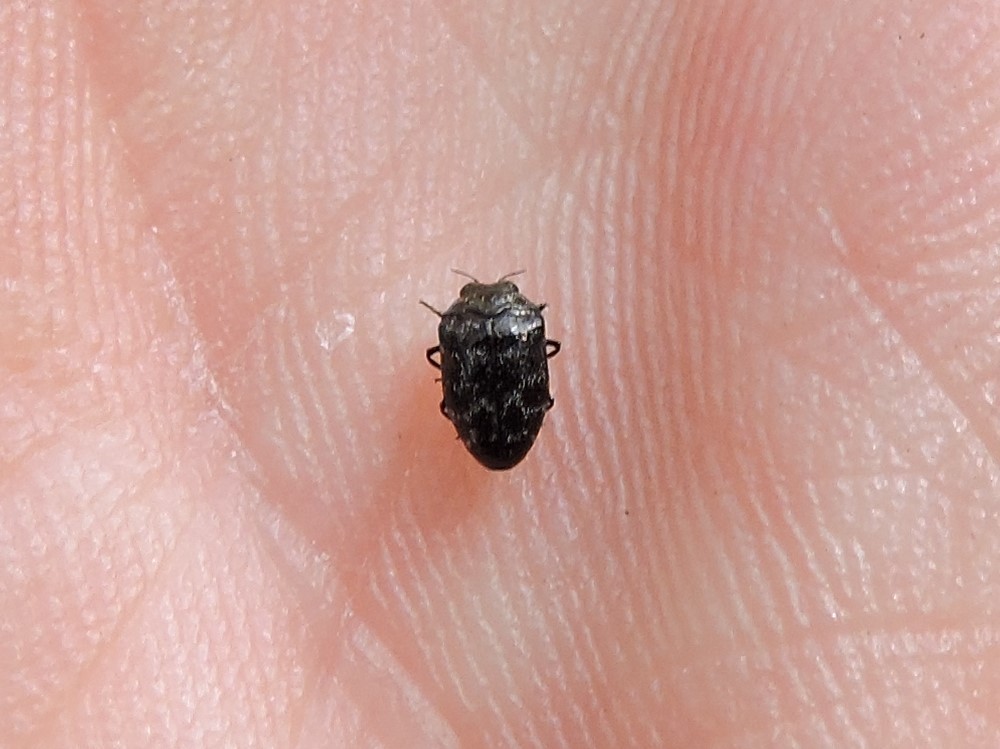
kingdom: Animalia
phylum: Arthropoda
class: Insecta
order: Coleoptera
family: Buprestidae
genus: Trachys
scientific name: Trachys minutus
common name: Metallic wood-boring beetle
